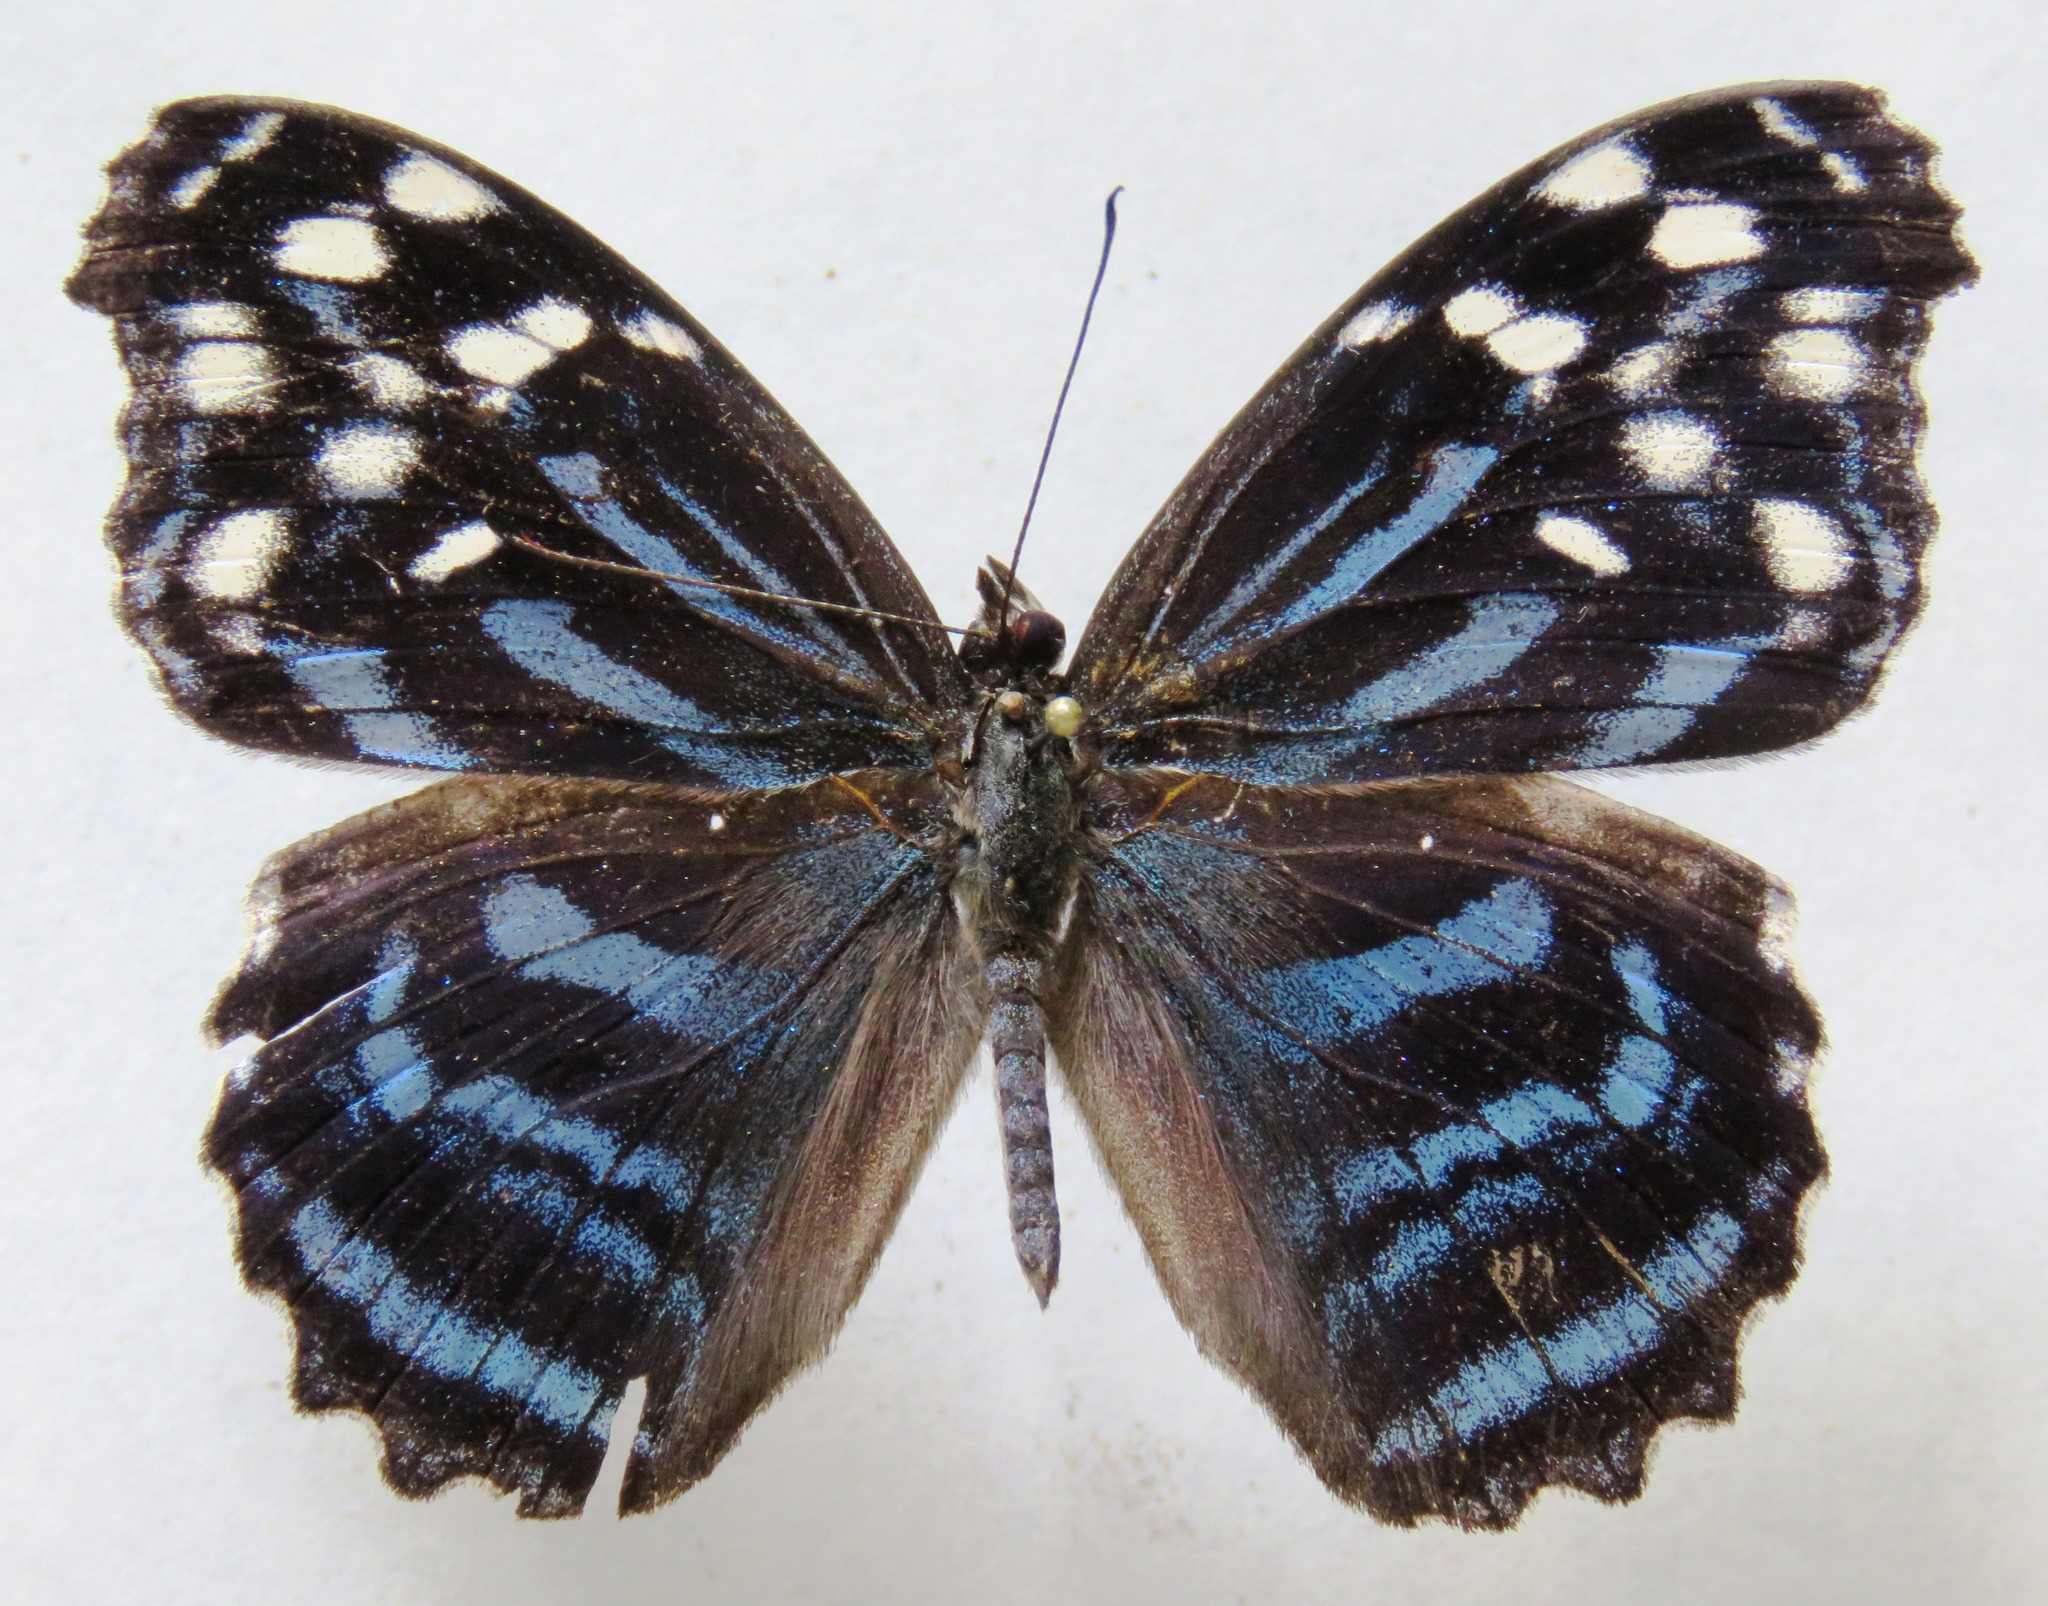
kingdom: Animalia
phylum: Arthropoda
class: Insecta
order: Lepidoptera
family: Nymphalidae
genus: Myscelia
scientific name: Myscelia ethusa
